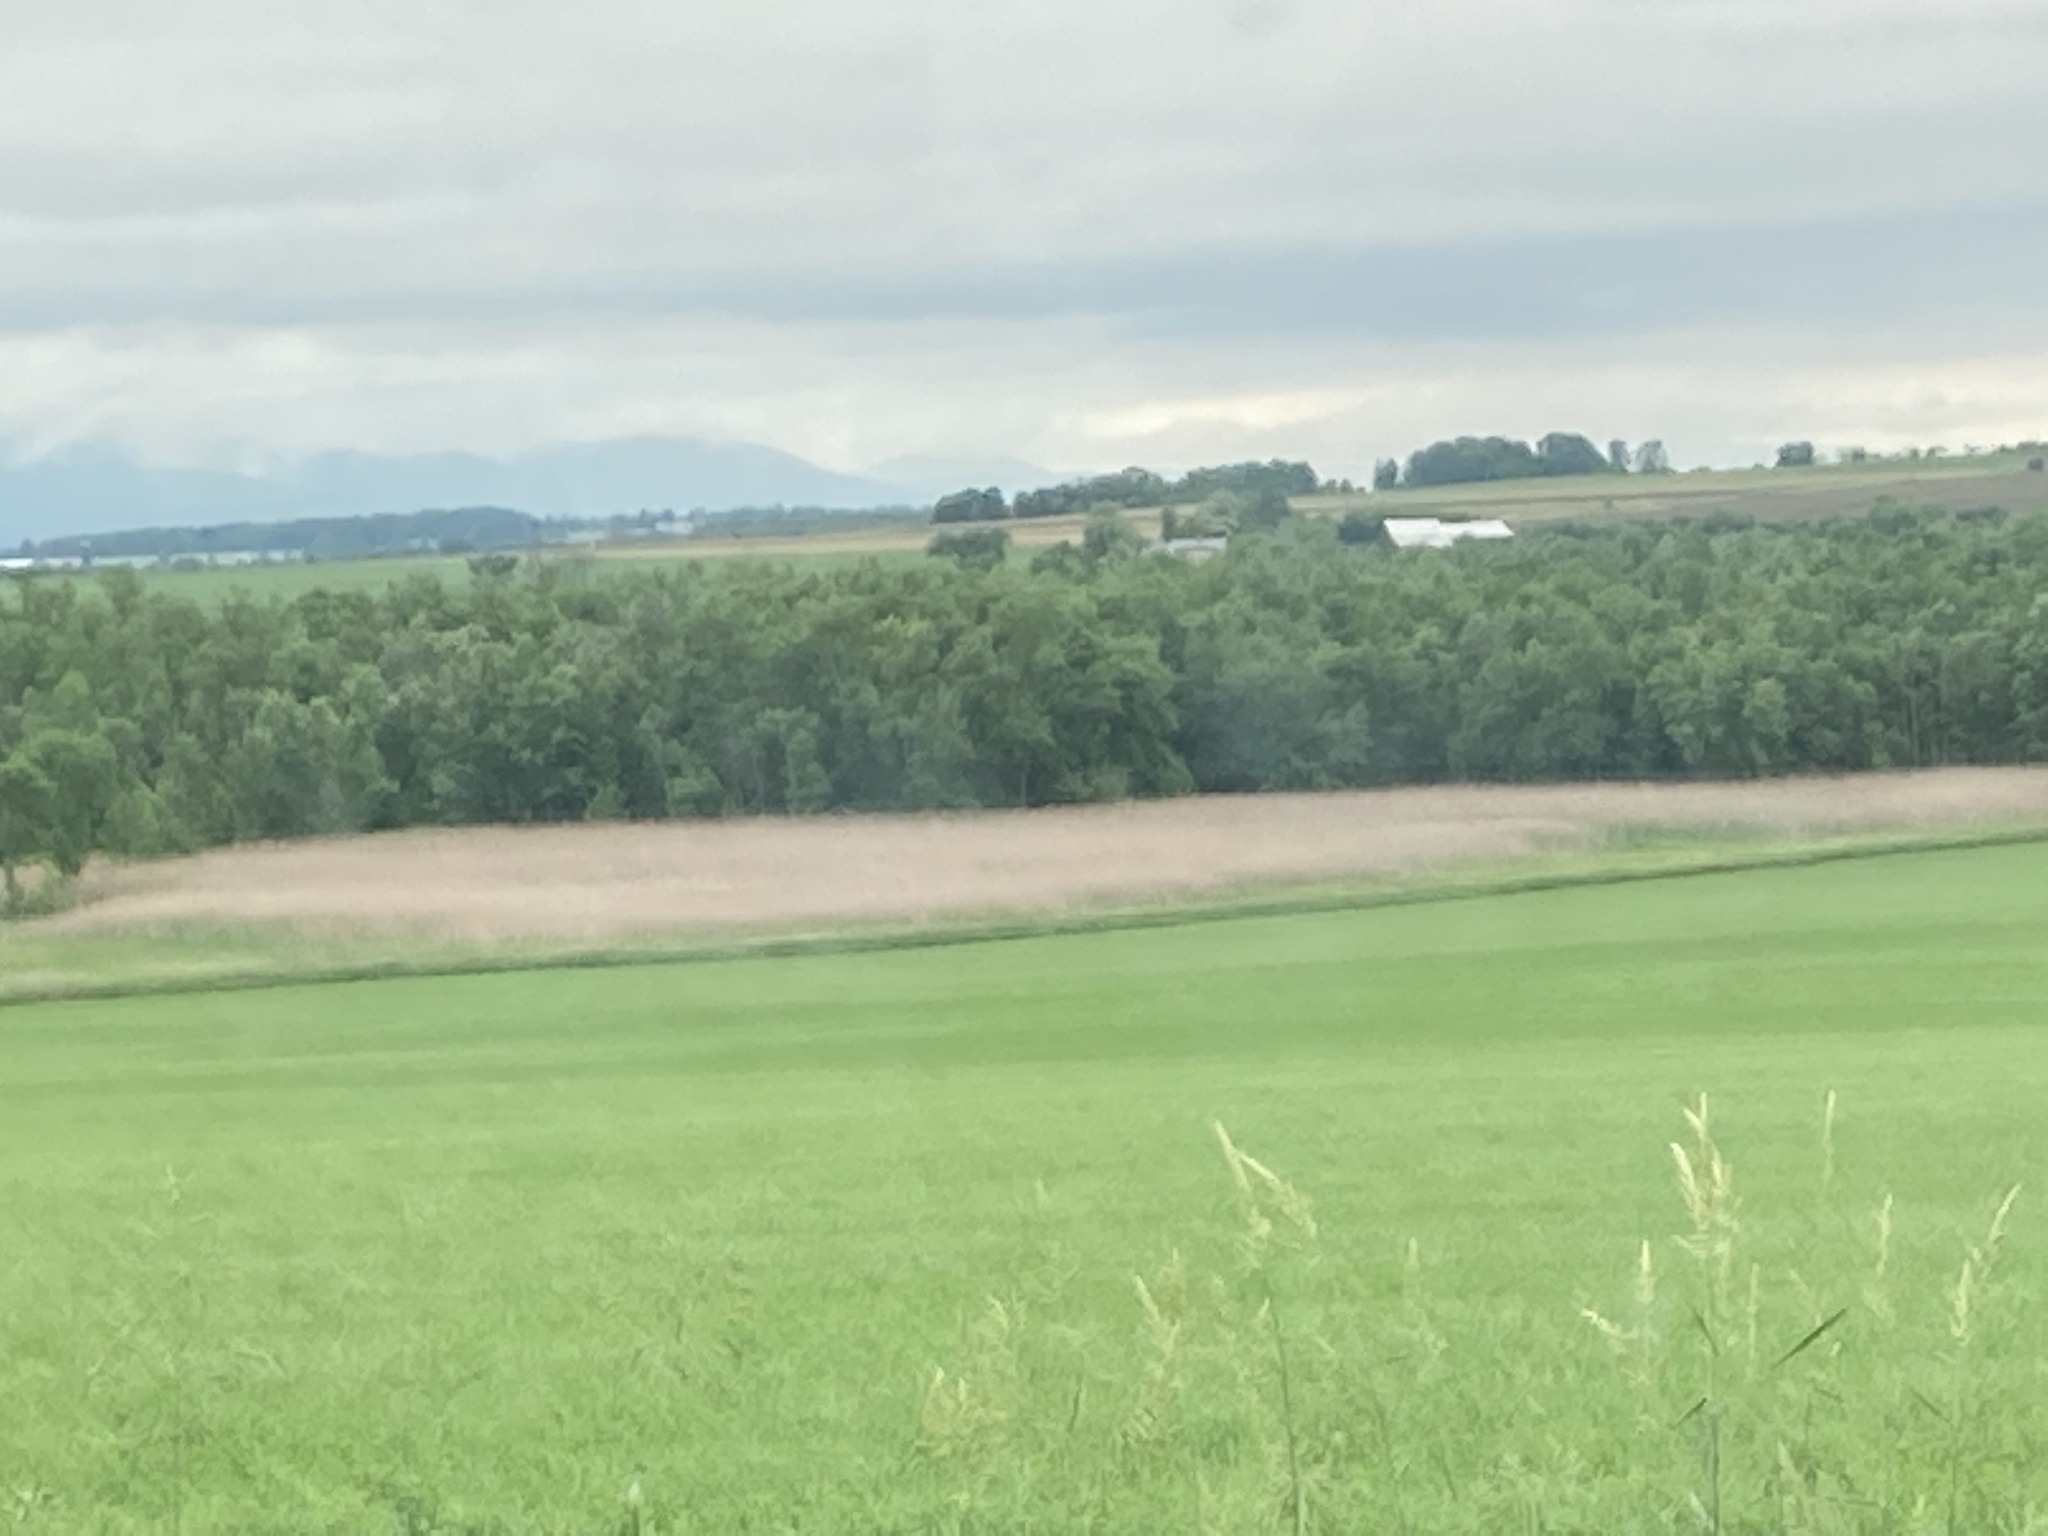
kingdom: Plantae
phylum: Tracheophyta
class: Liliopsida
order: Poales
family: Poaceae
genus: Phragmites
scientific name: Phragmites australis
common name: Common reed
